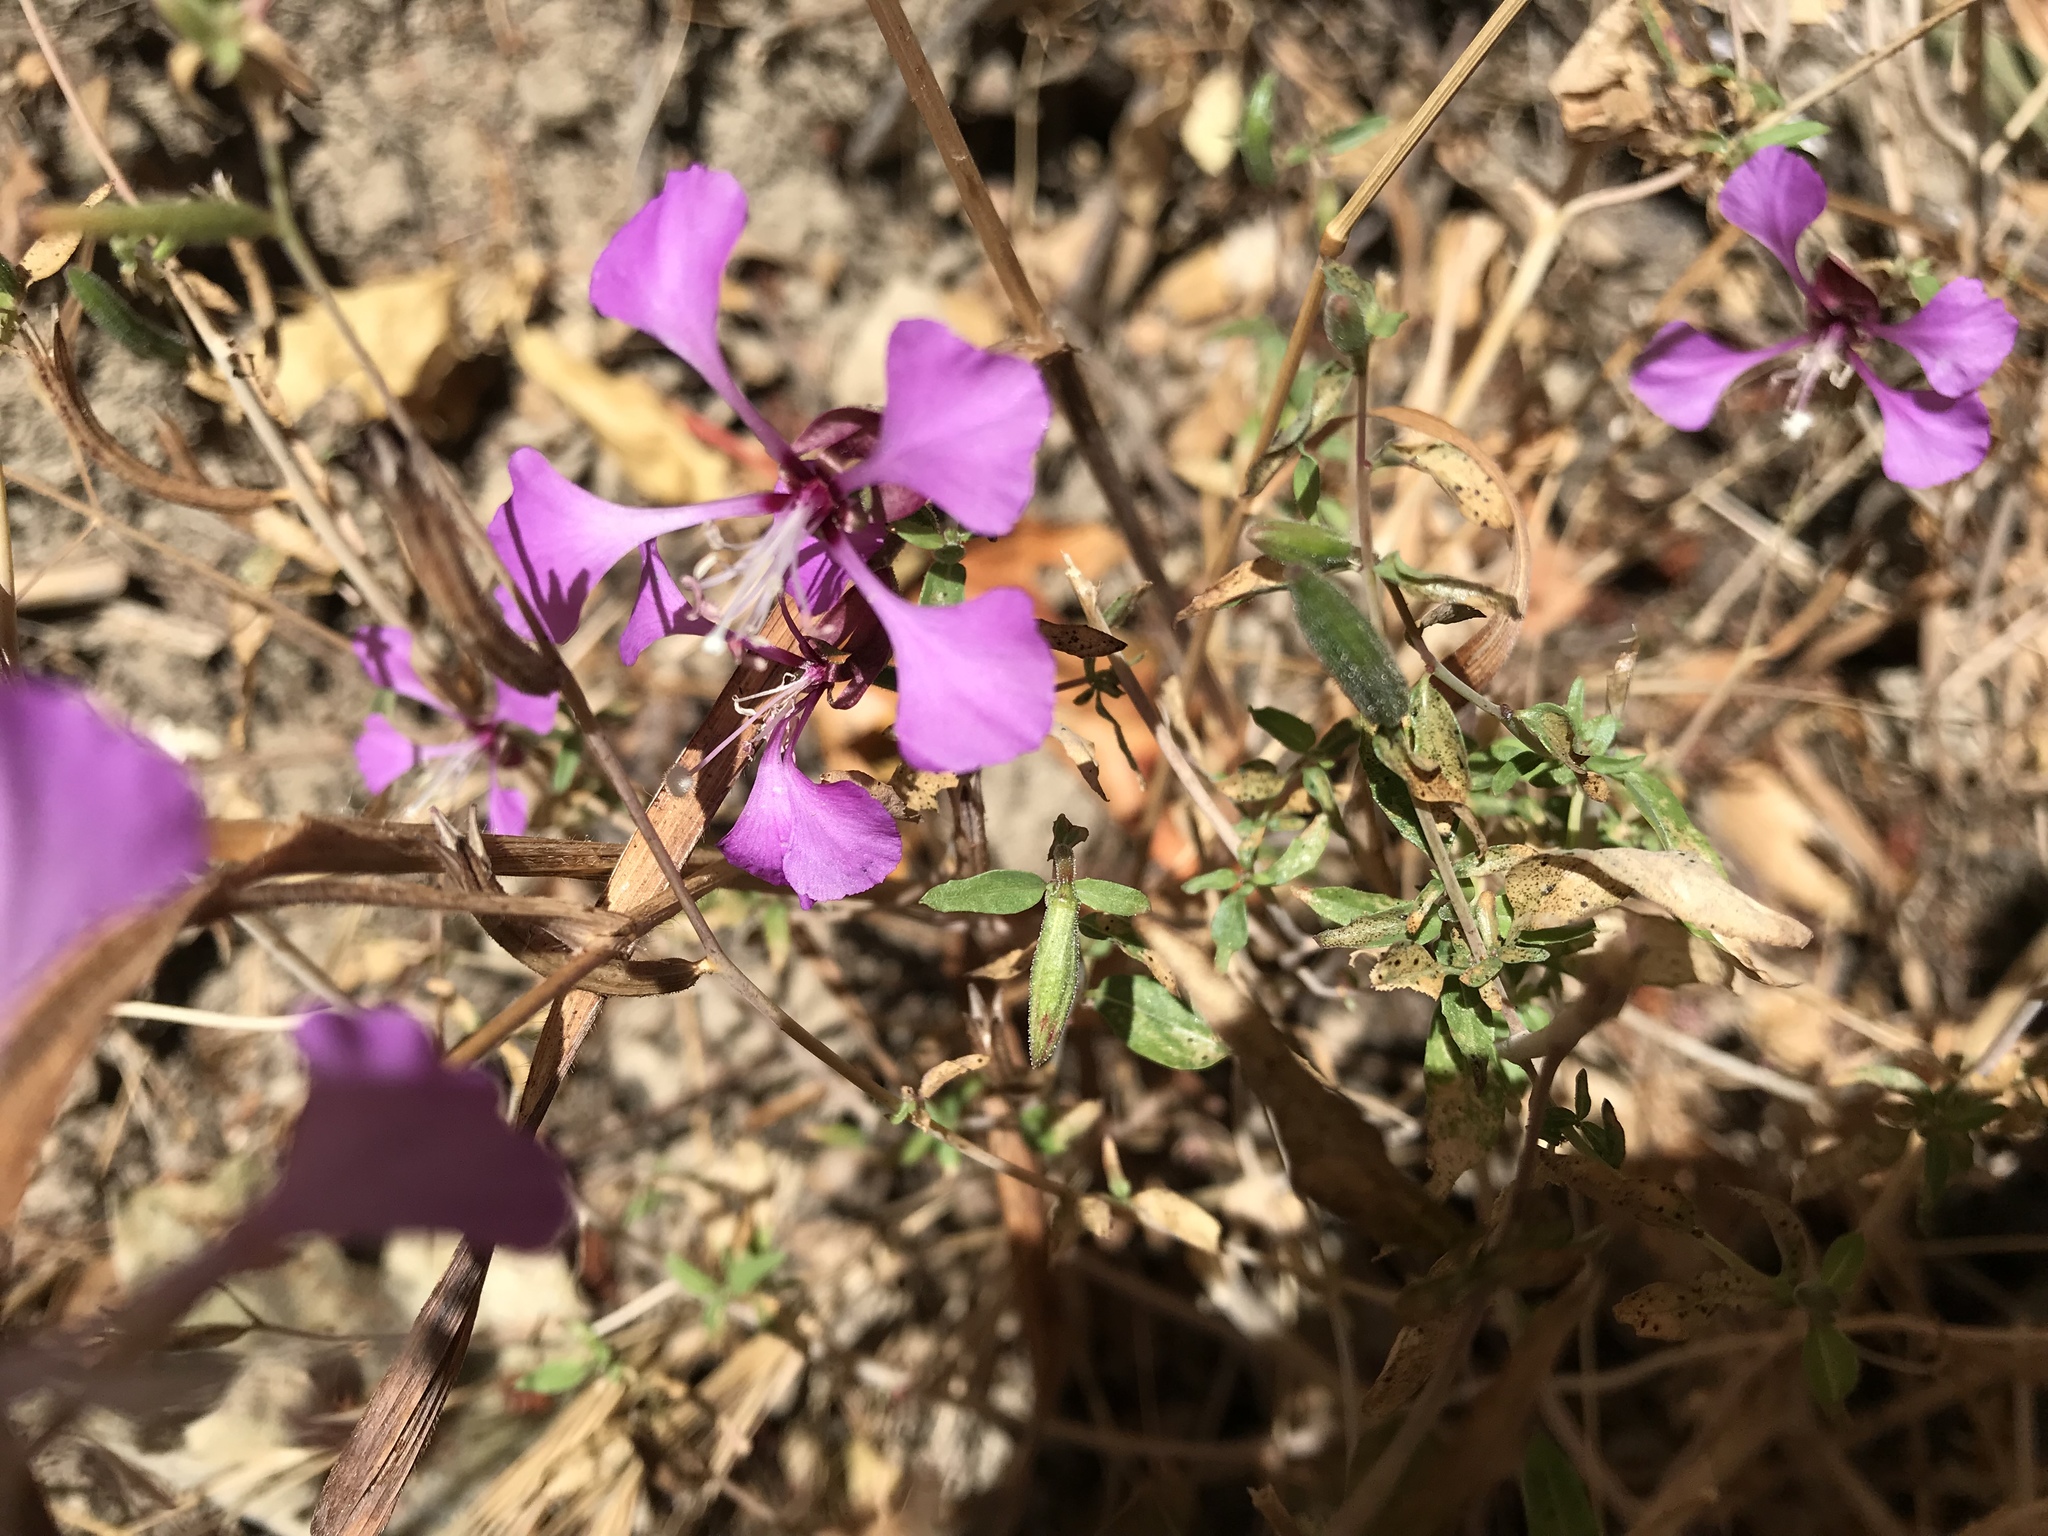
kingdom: Plantae
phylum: Tracheophyta
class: Magnoliopsida
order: Myrtales
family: Onagraceae
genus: Clarkia
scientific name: Clarkia unguiculata
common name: Clarkia
